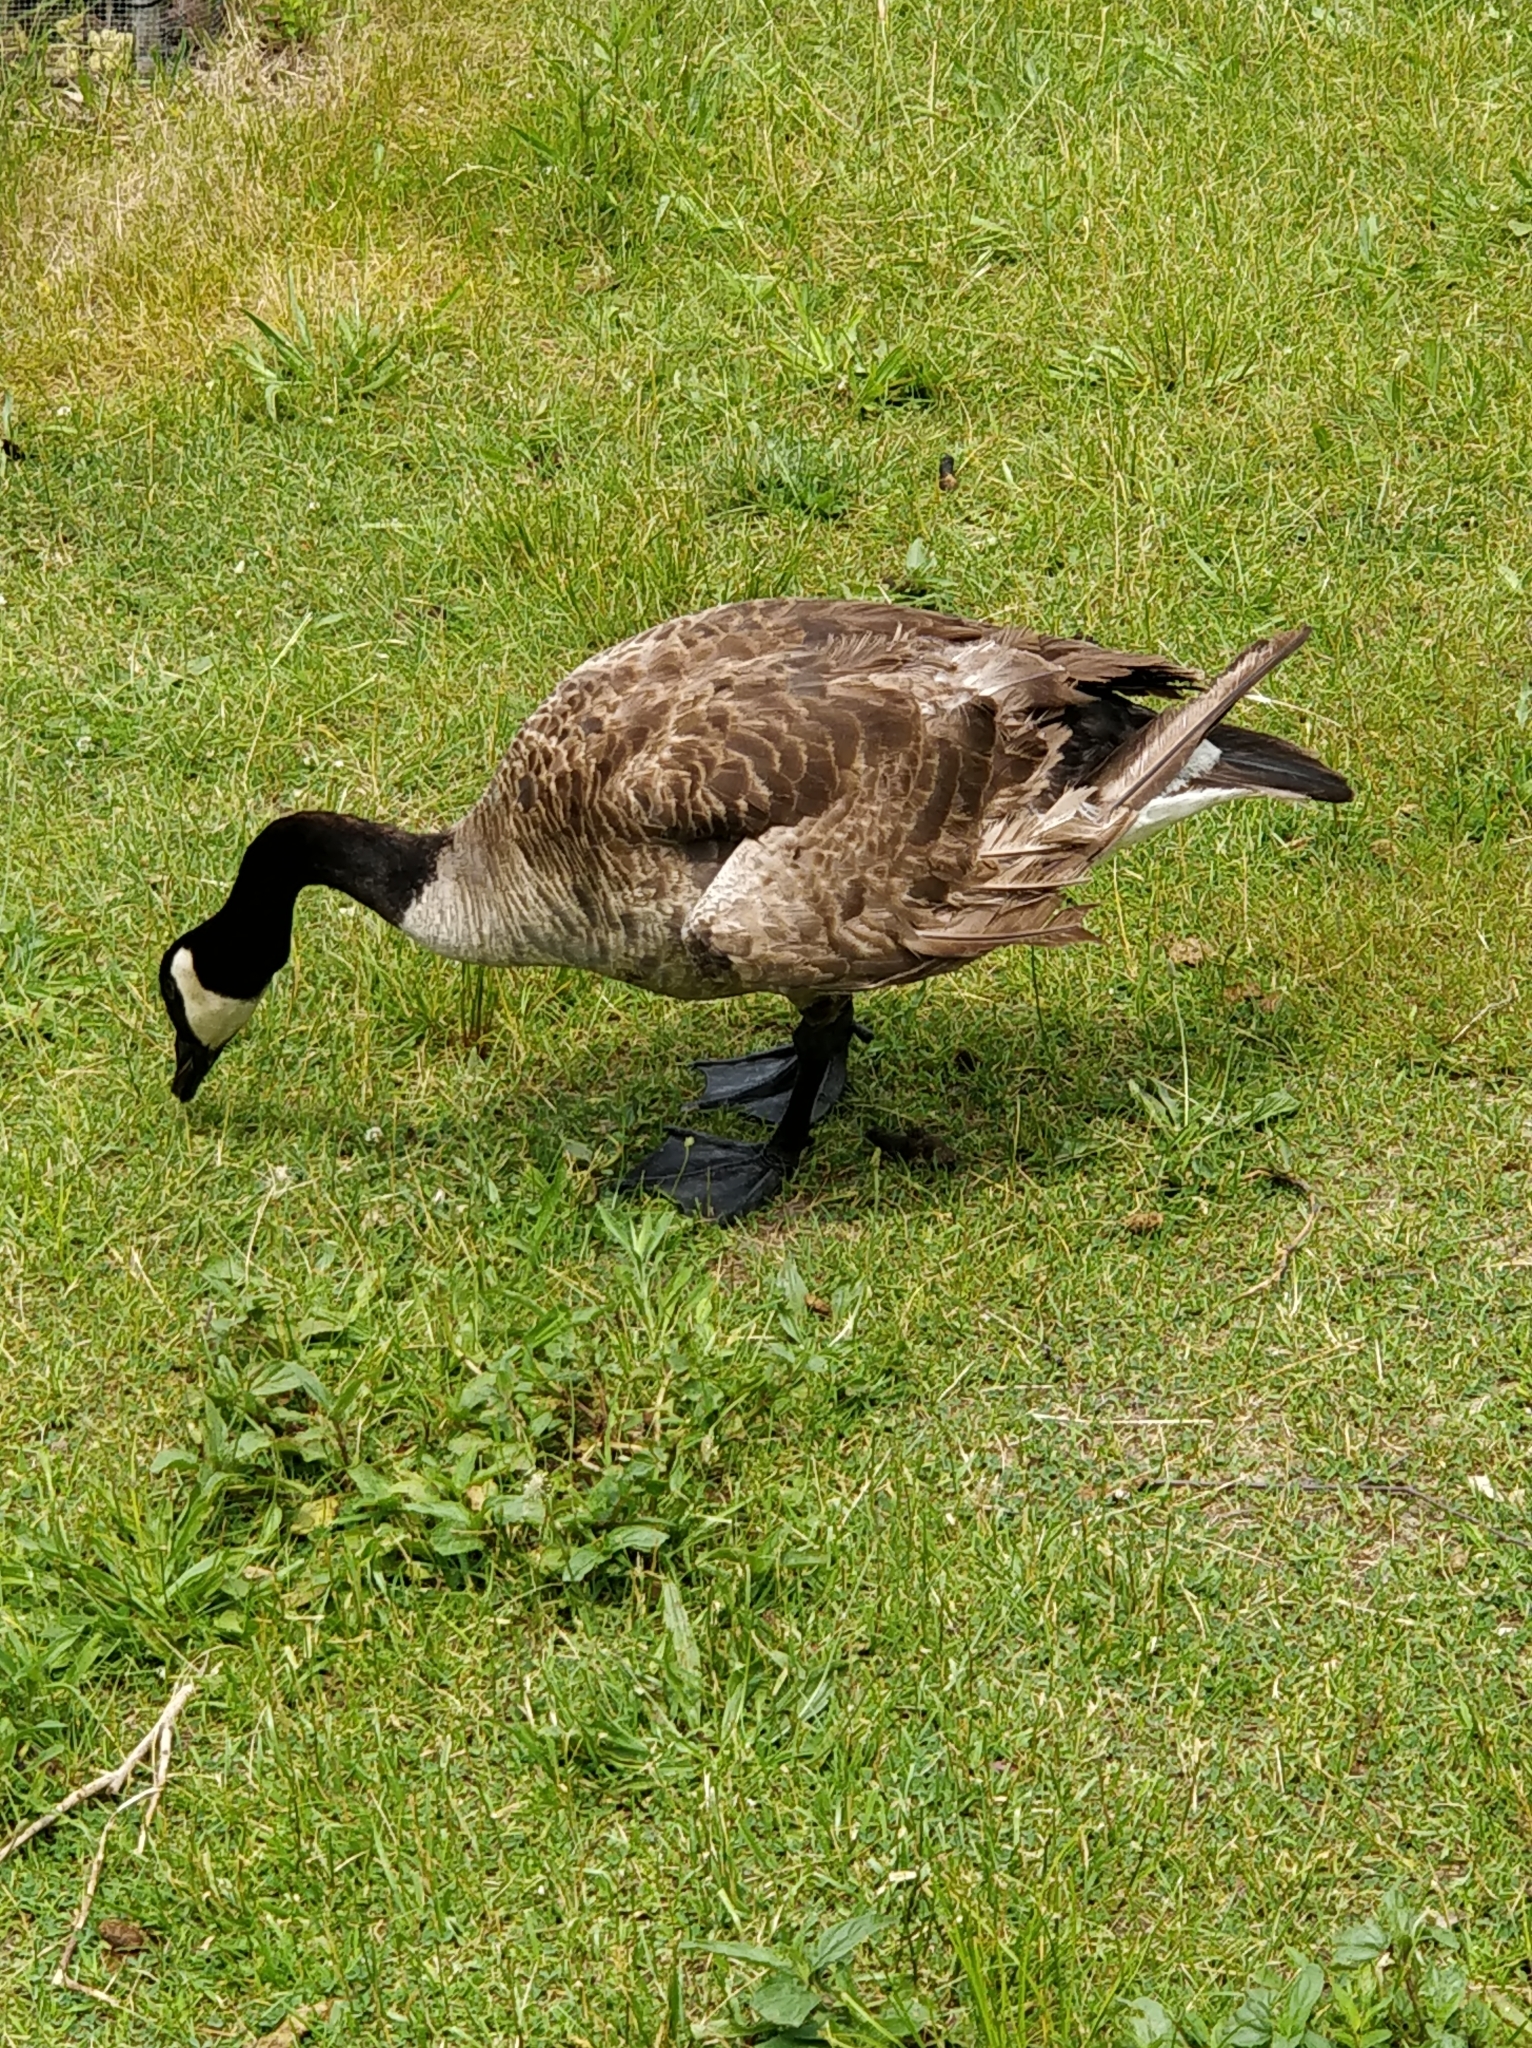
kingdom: Animalia
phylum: Chordata
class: Aves
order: Anseriformes
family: Anatidae
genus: Branta
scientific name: Branta canadensis
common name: Canada goose
